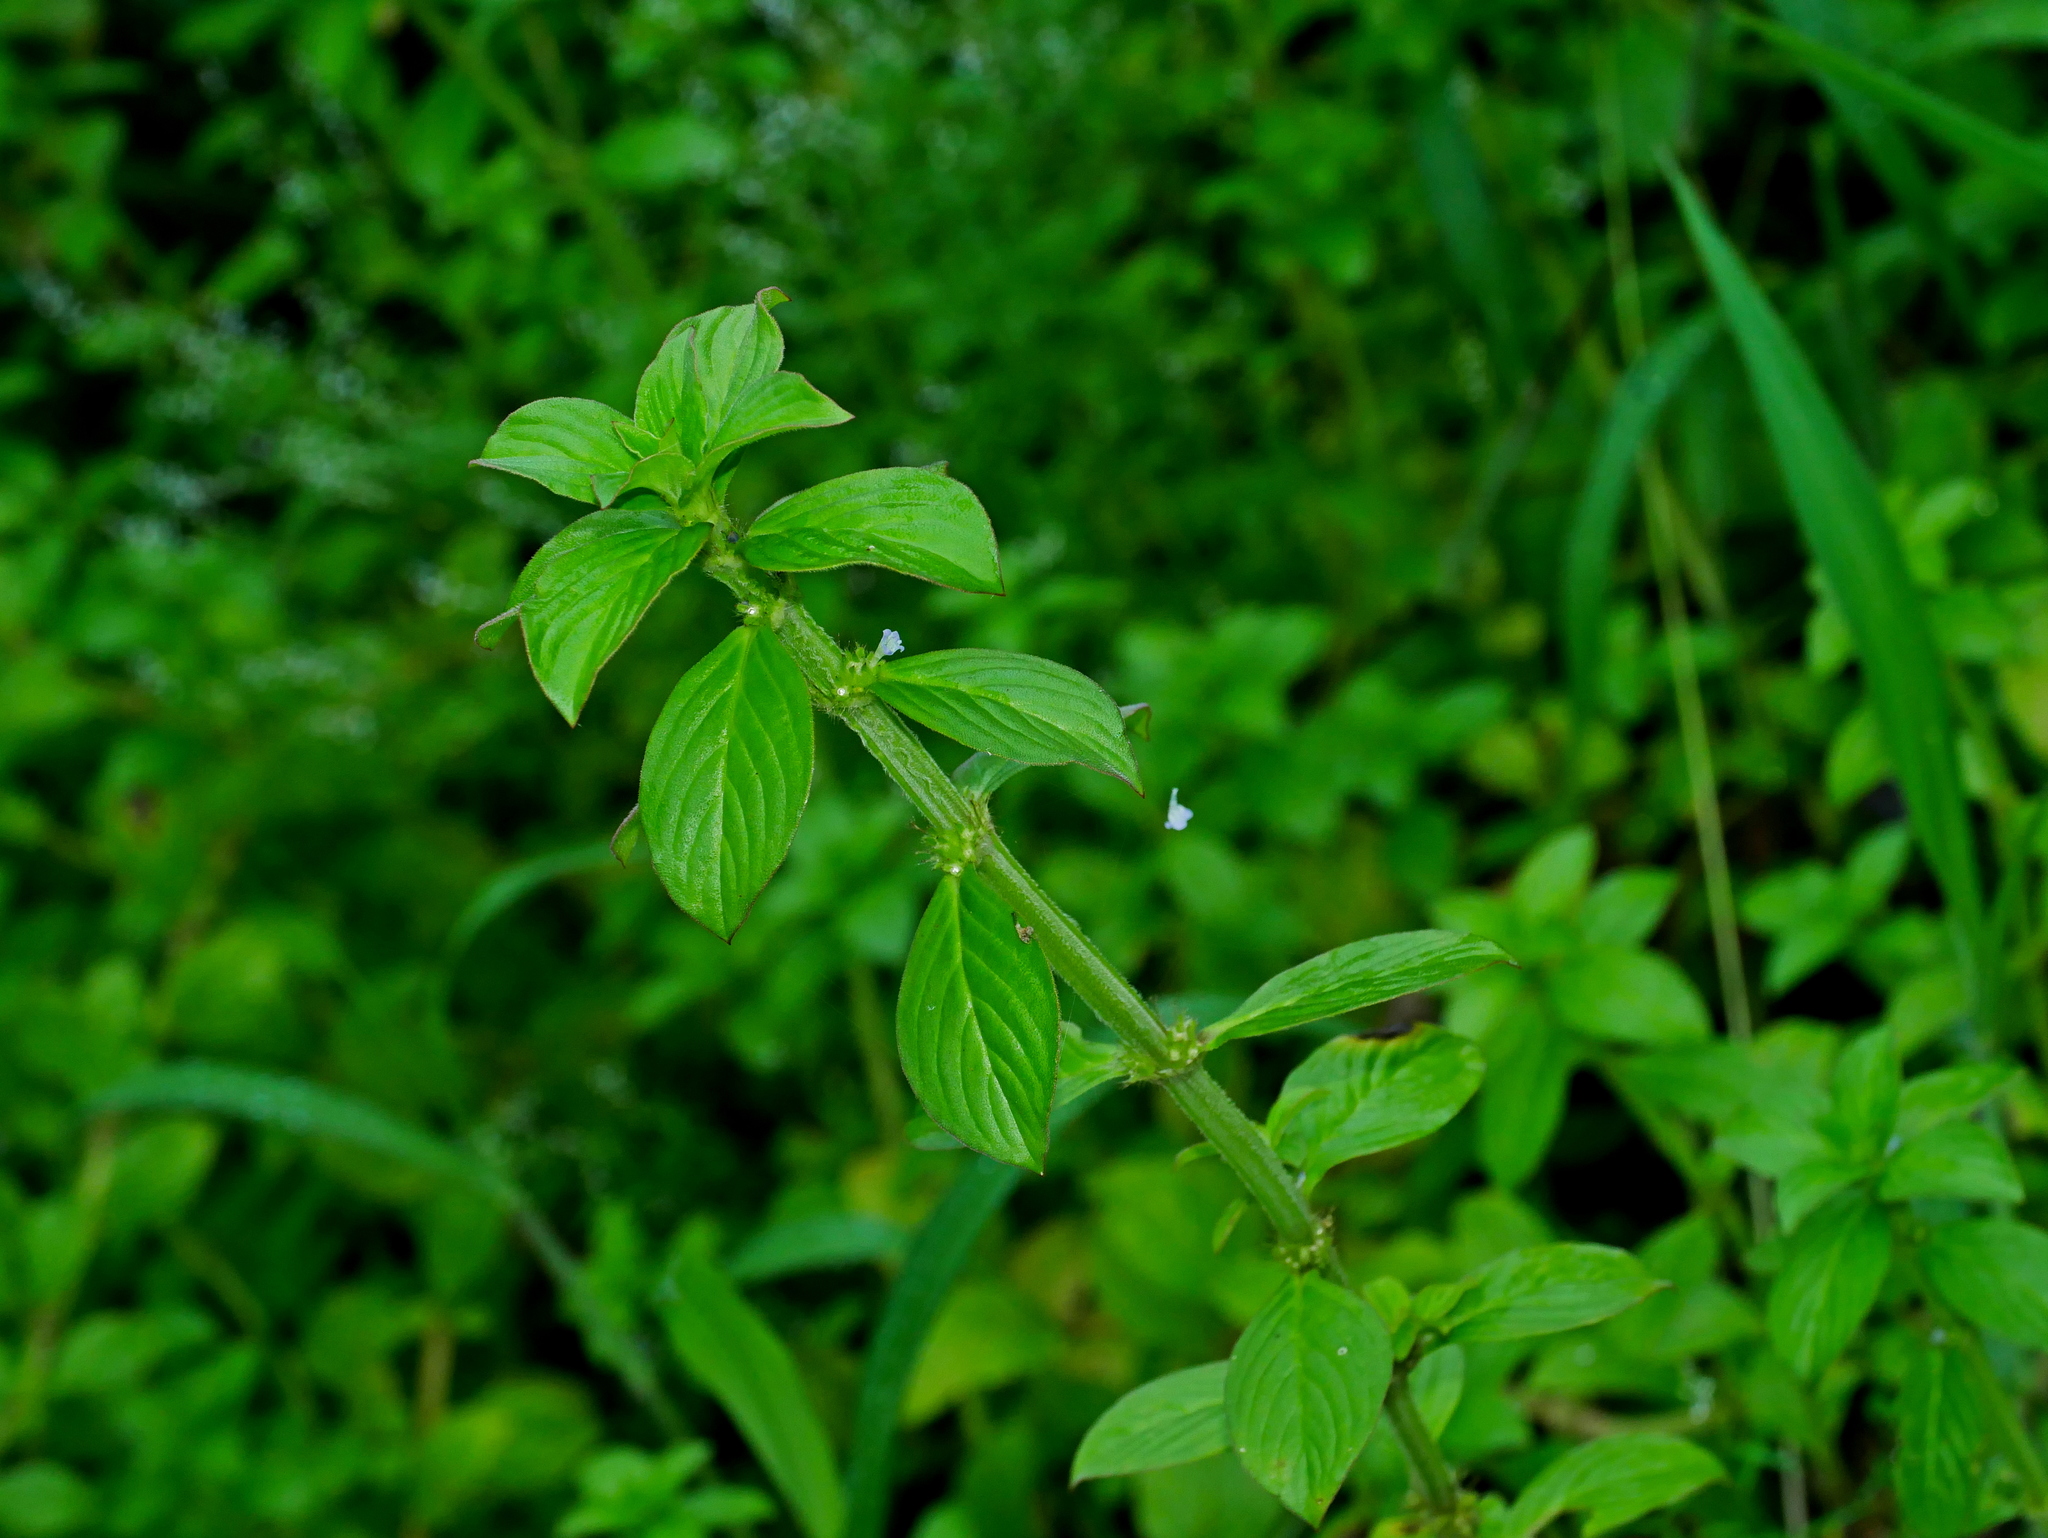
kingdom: Plantae
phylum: Tracheophyta
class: Magnoliopsida
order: Gentianales
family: Rubiaceae
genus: Spermacoce
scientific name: Spermacoce latifolia
